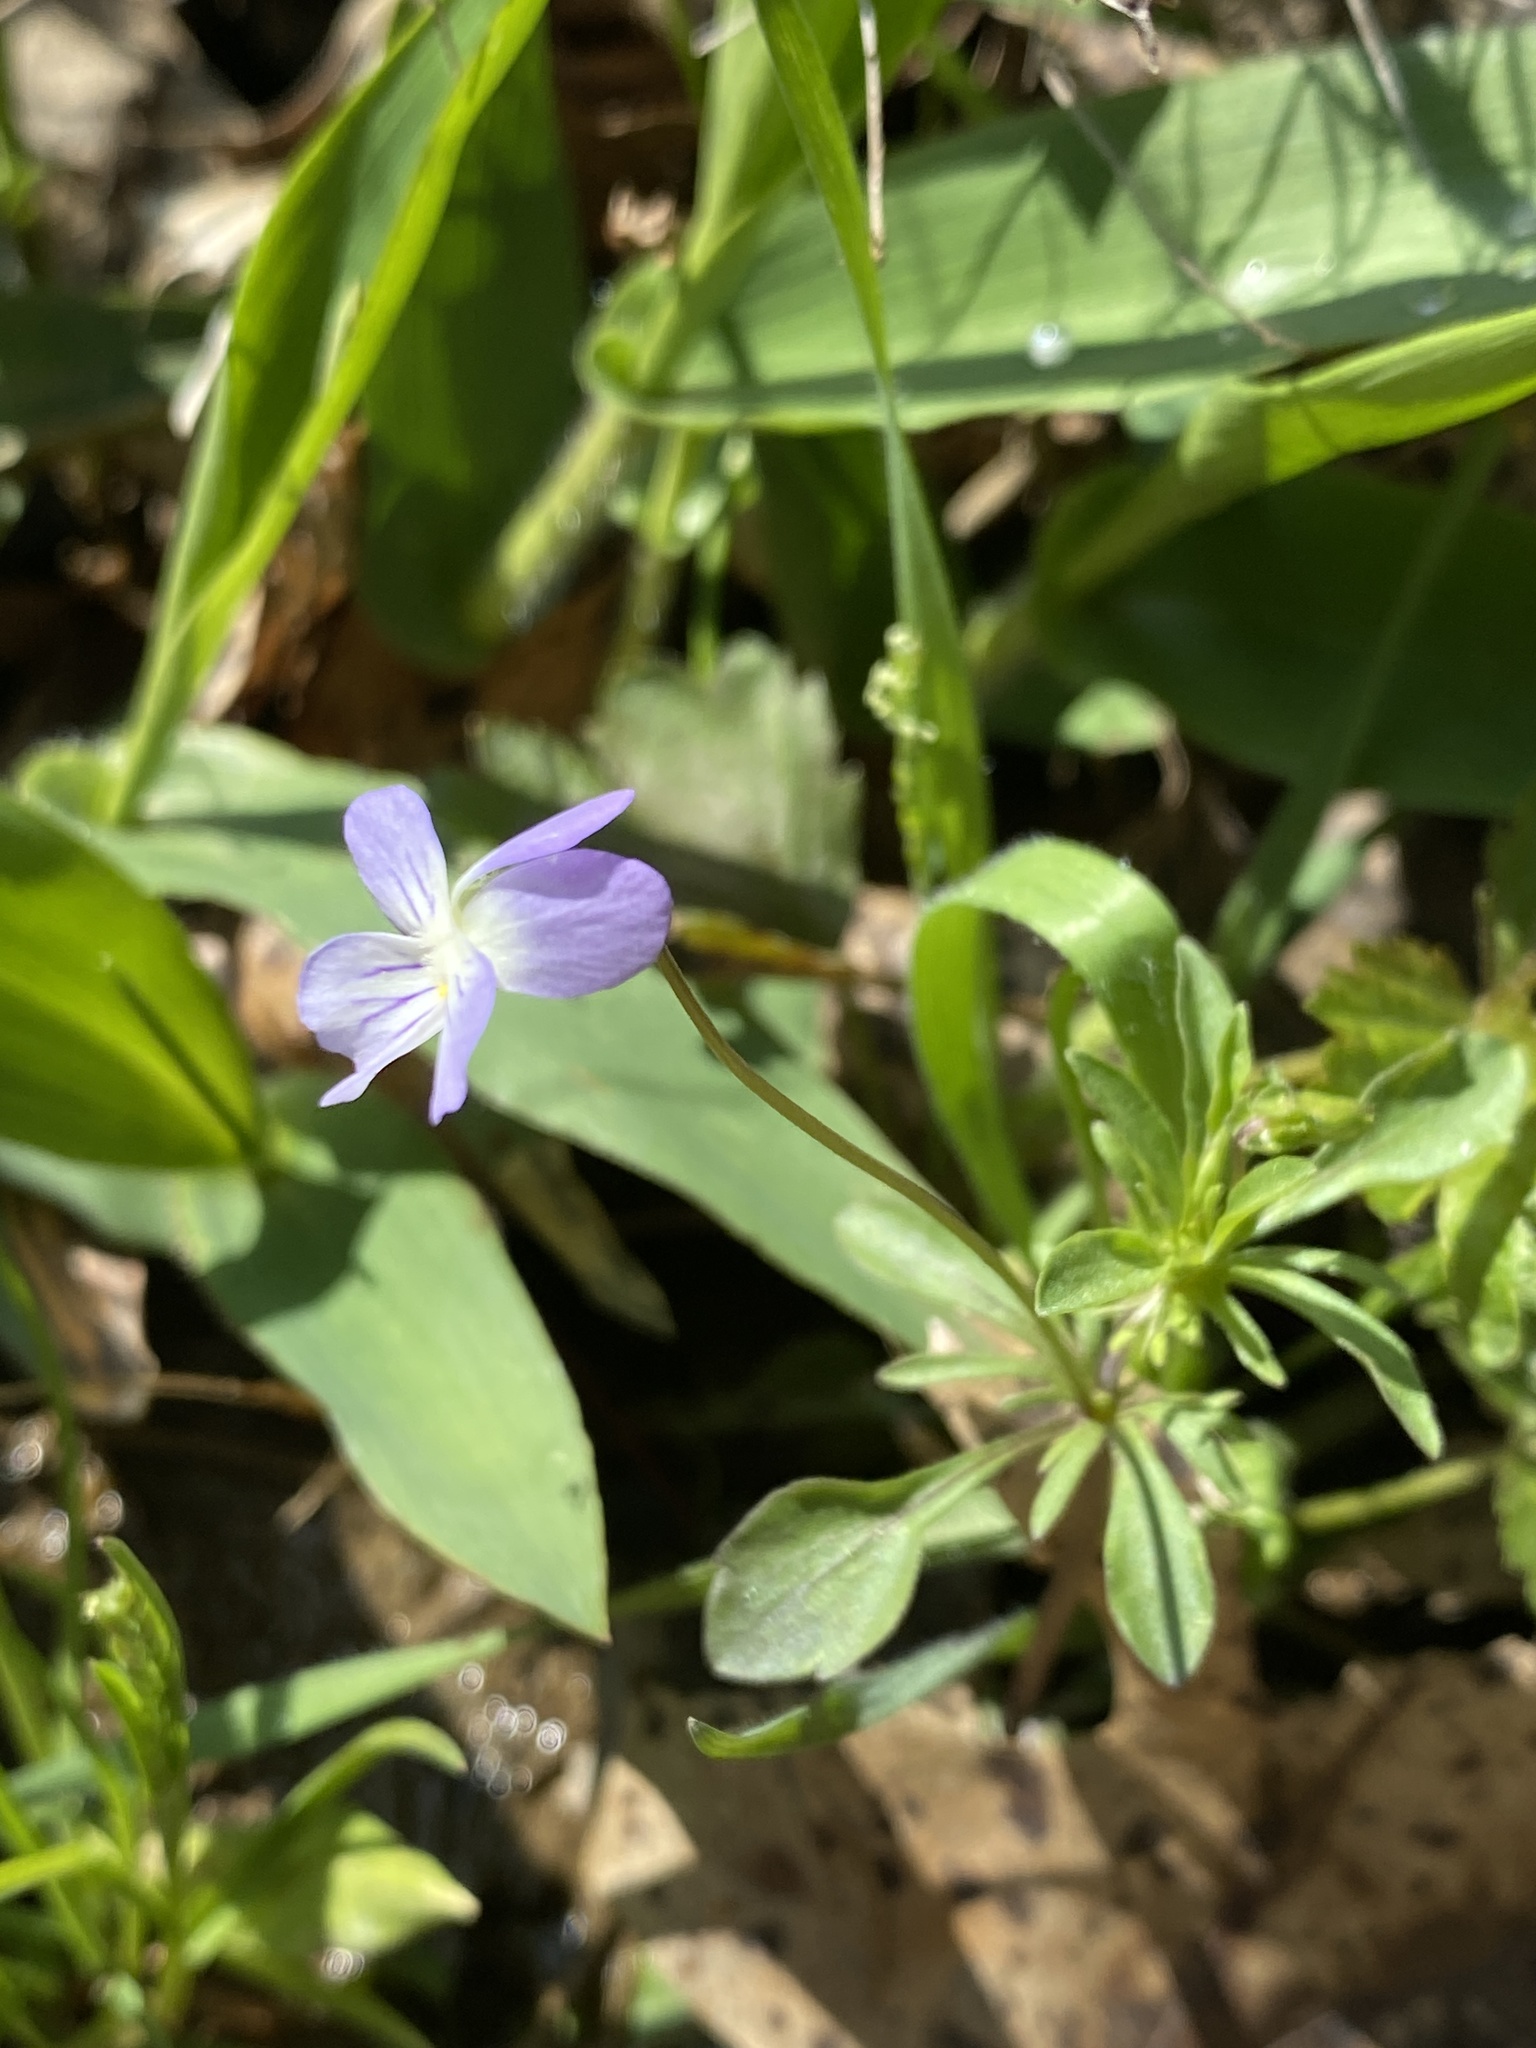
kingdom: Plantae
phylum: Tracheophyta
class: Magnoliopsida
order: Malpighiales
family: Violaceae
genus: Viola
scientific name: Viola rafinesquei
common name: American field pansy
